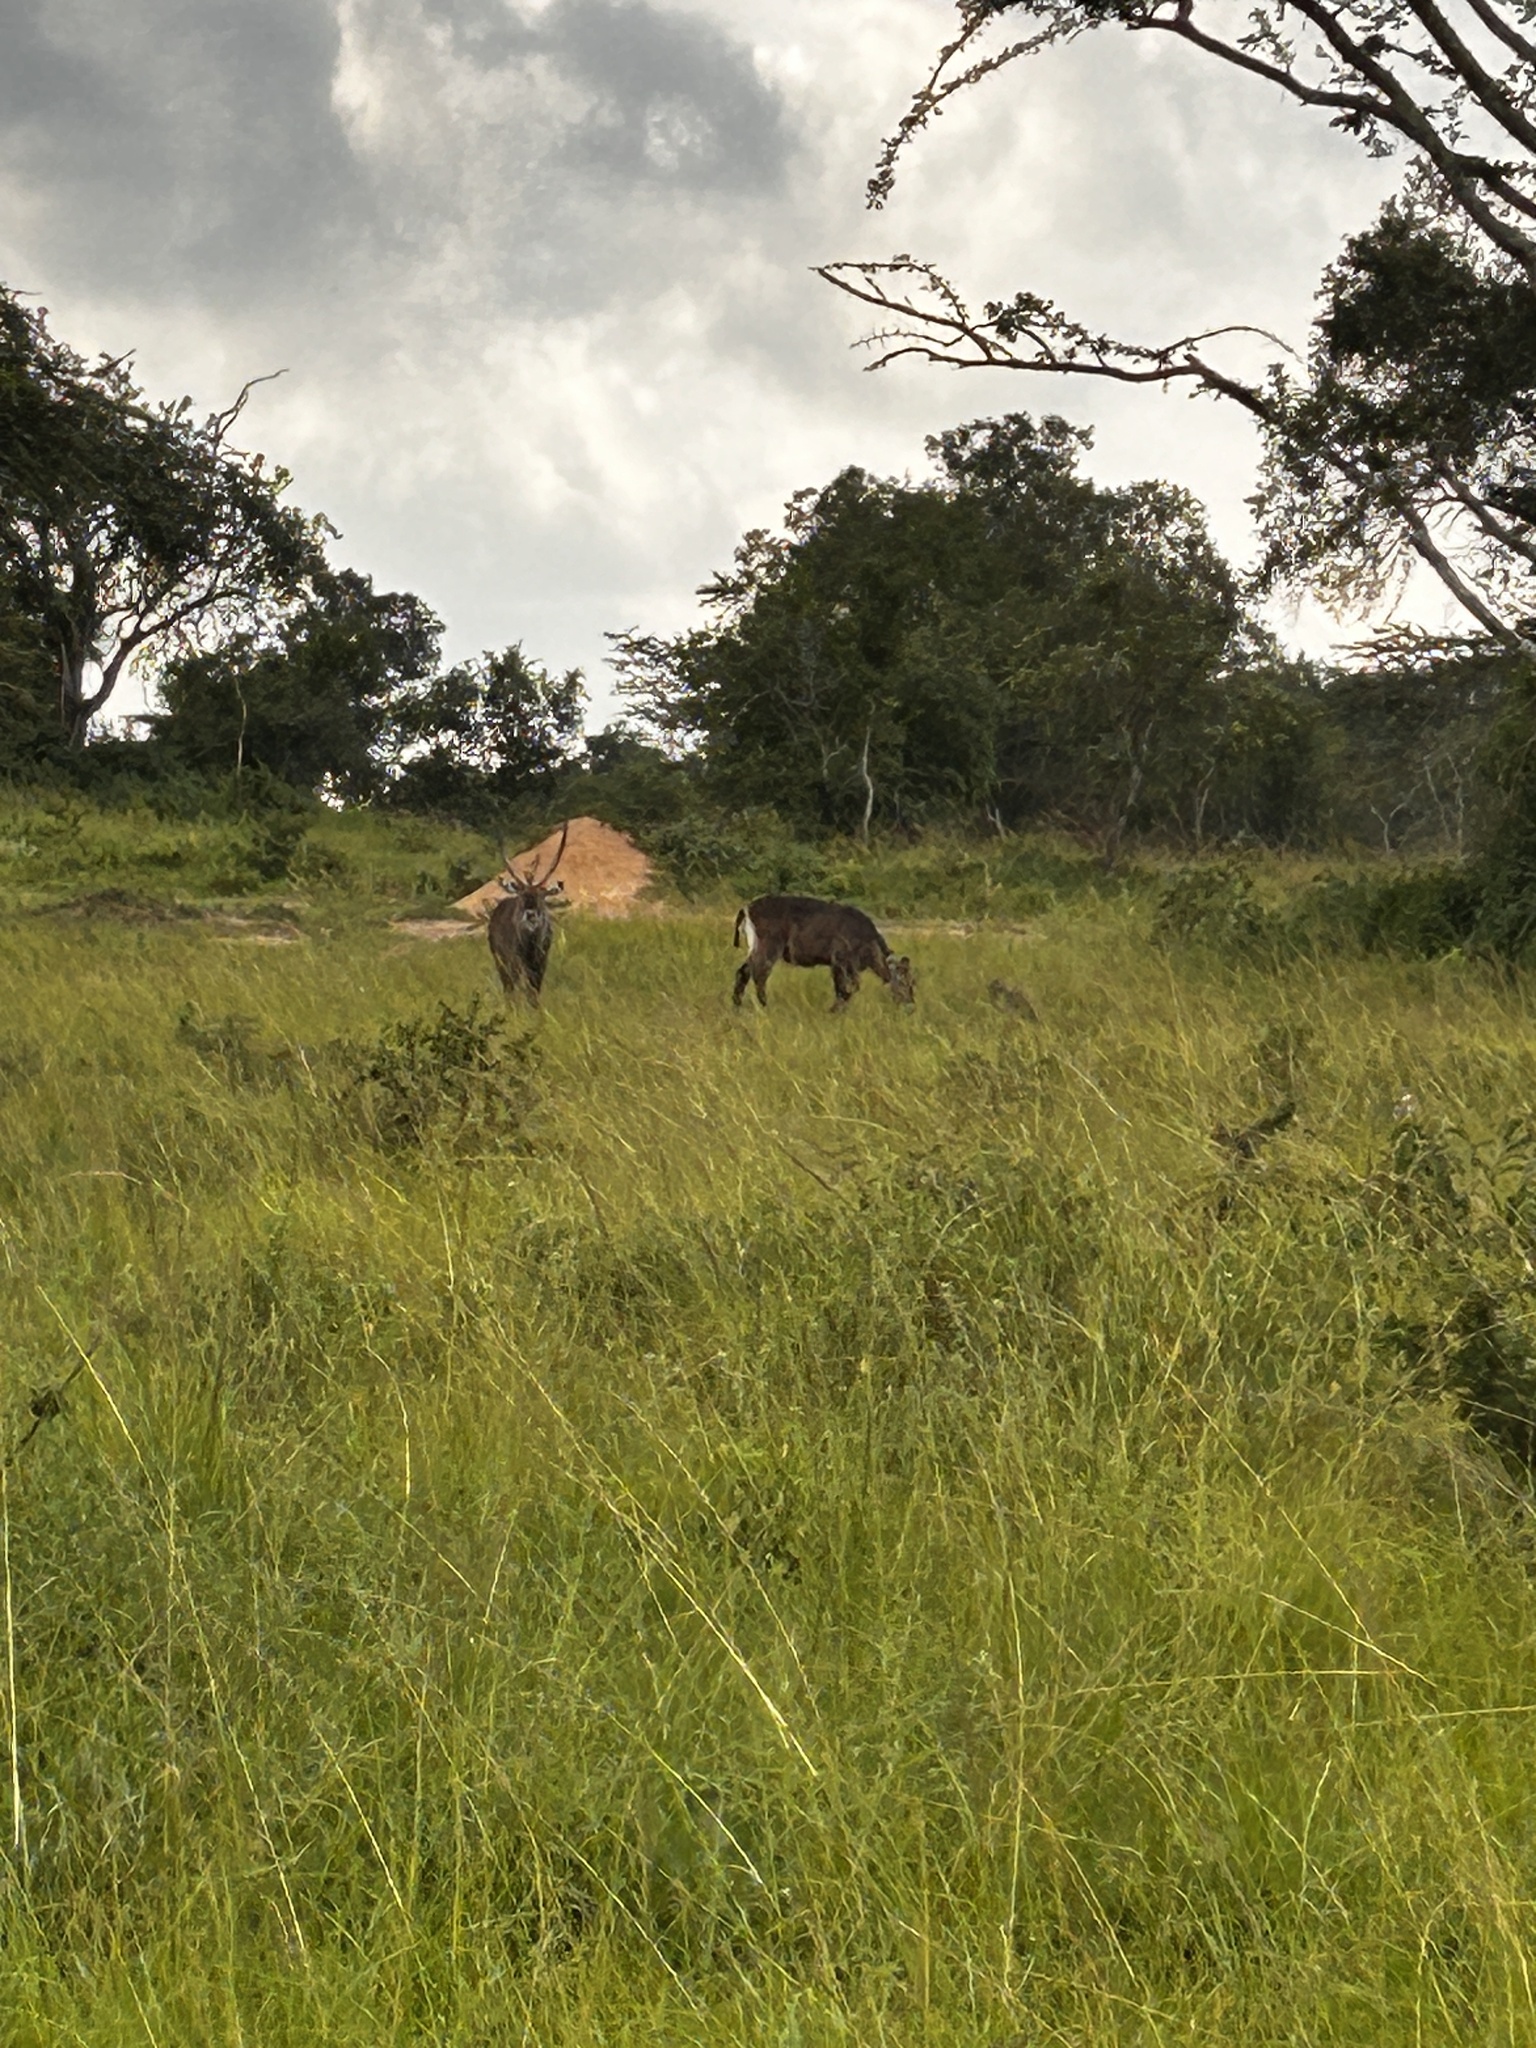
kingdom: Animalia
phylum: Chordata
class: Mammalia
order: Artiodactyla
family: Bovidae
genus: Kobus
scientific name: Kobus ellipsiprymnus
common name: Waterbuck
